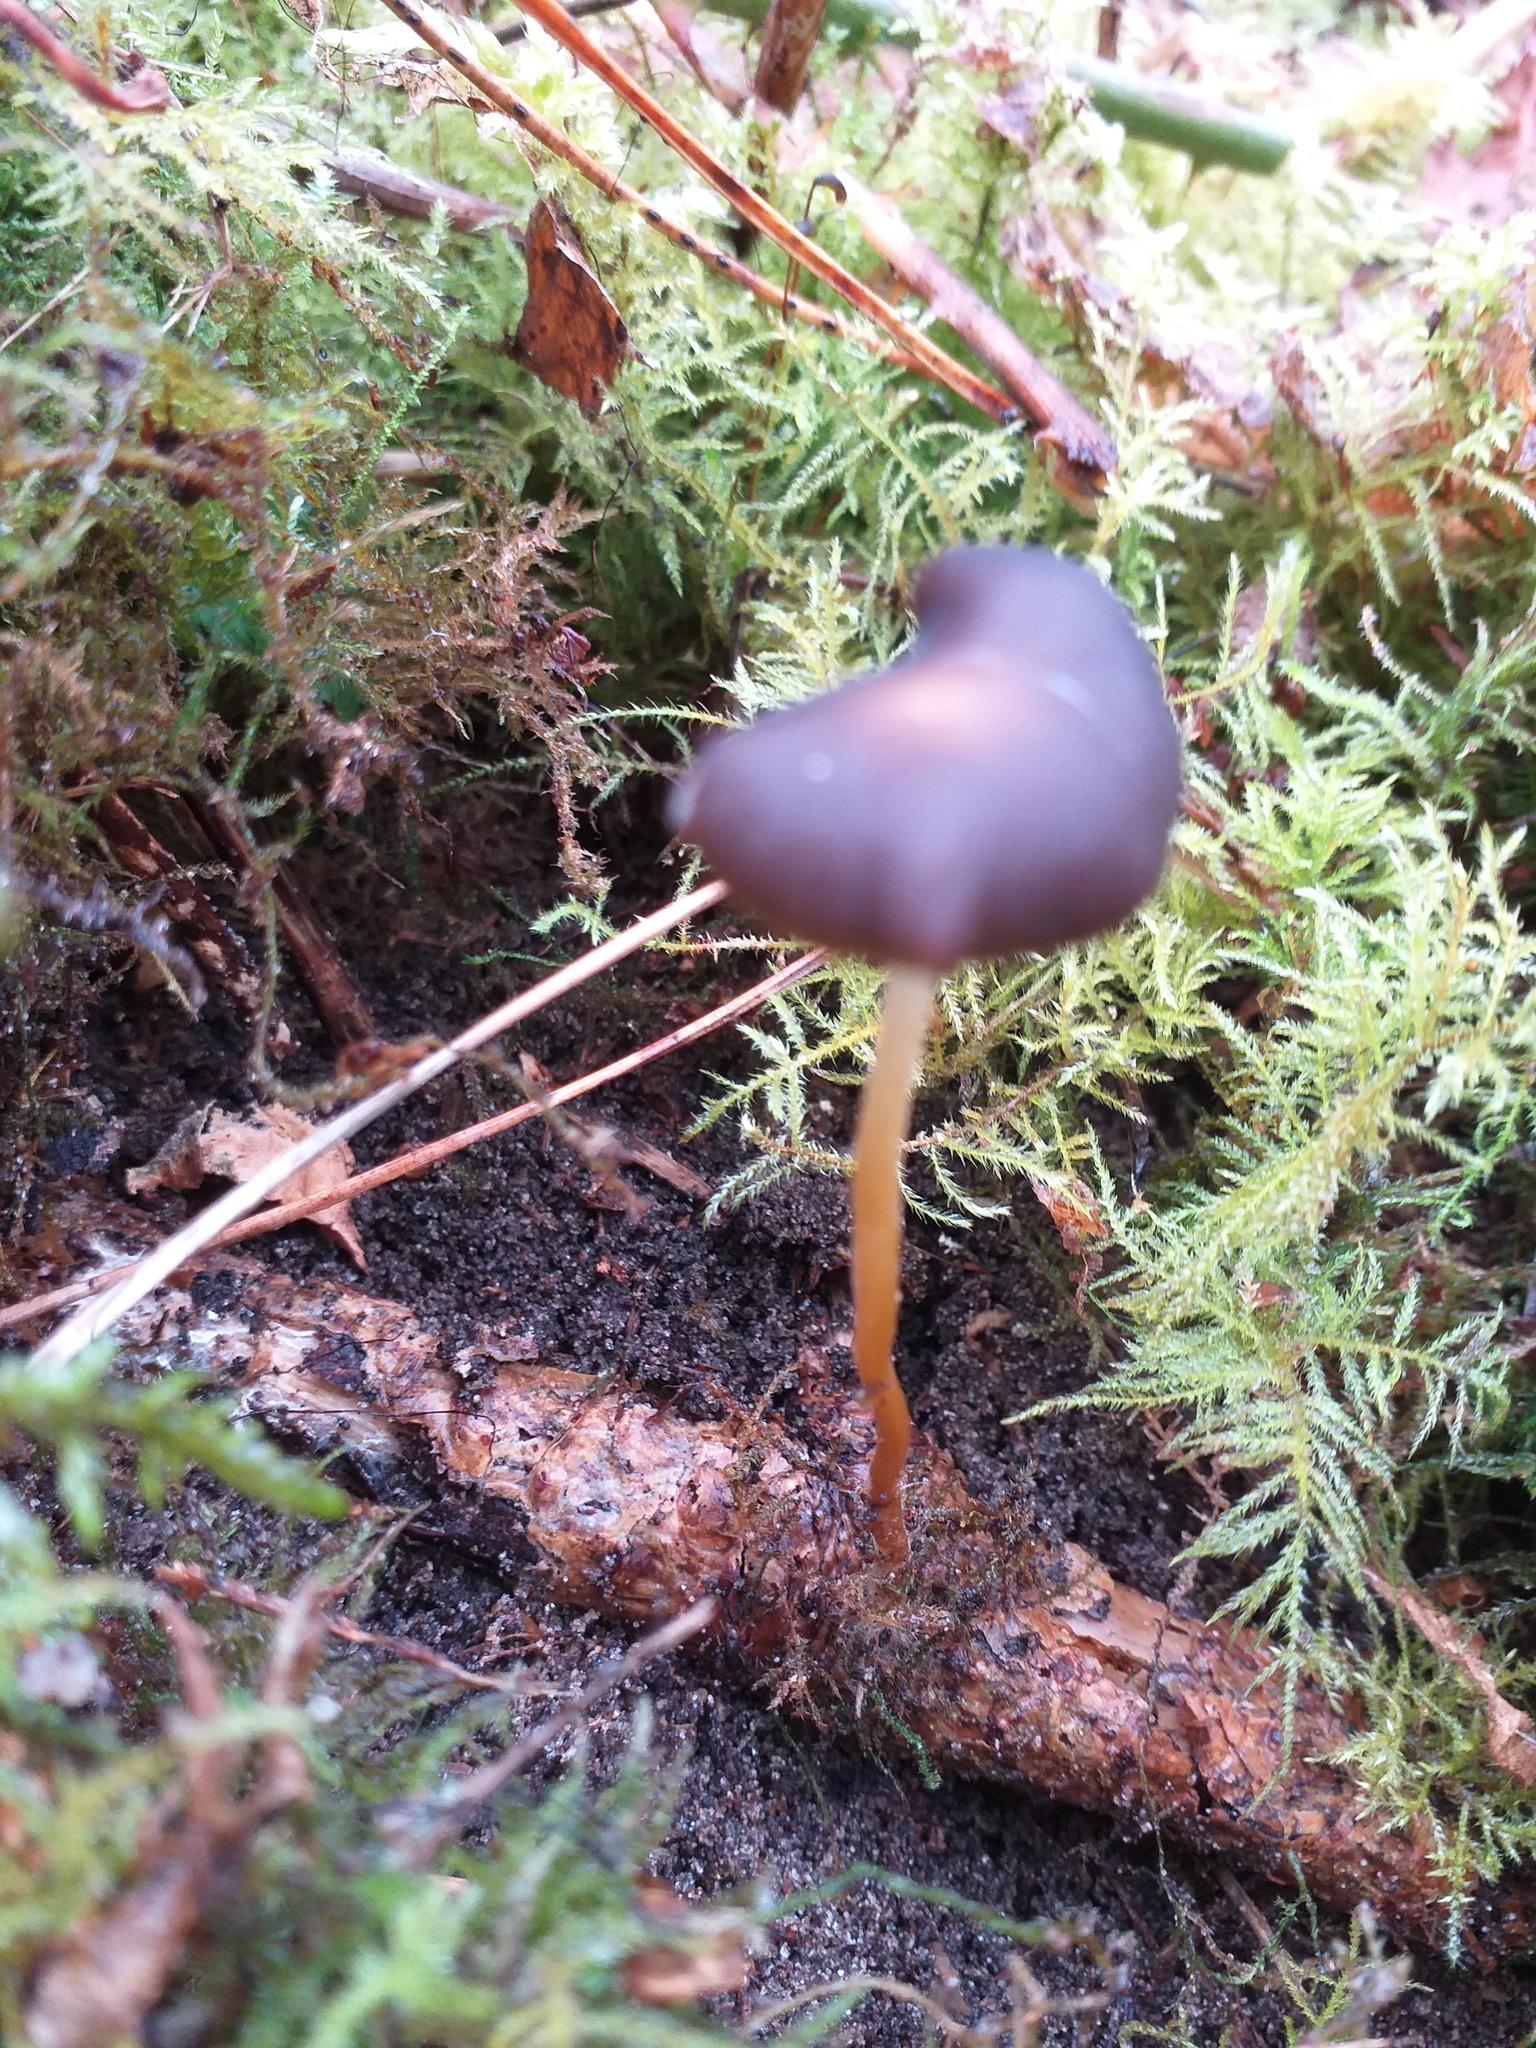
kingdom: Fungi
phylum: Basidiomycota
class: Agaricomycetes
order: Agaricales
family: Physalacriaceae
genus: Strobilurus
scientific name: Strobilurus tenacellus
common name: Pinecone cap
